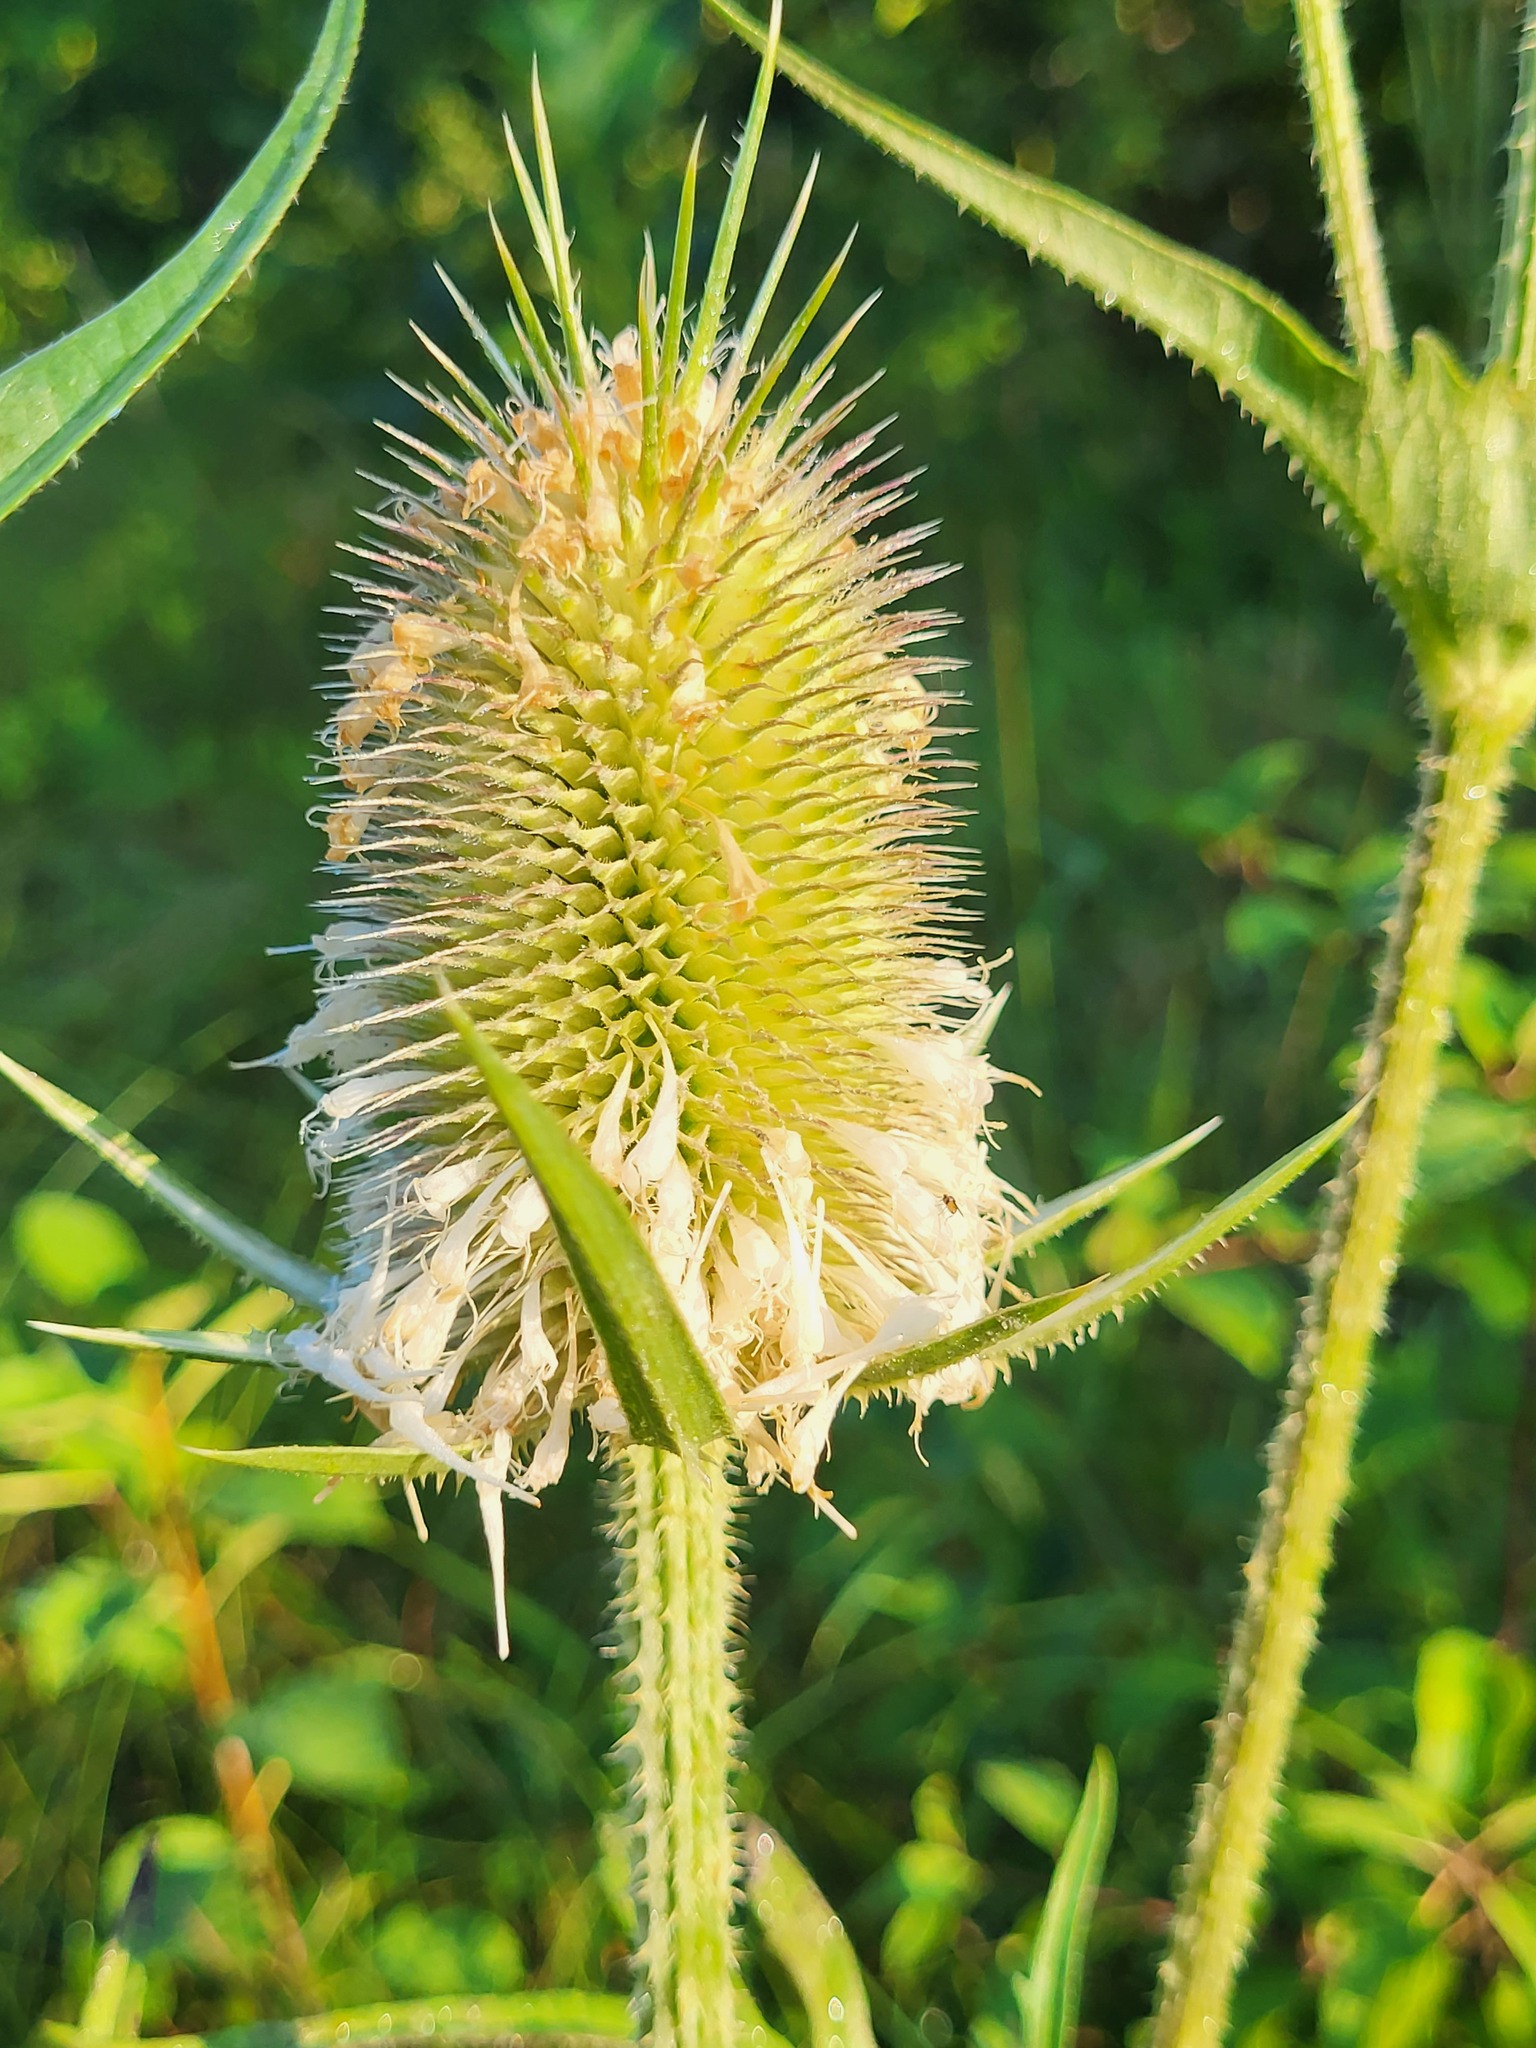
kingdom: Plantae
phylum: Tracheophyta
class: Magnoliopsida
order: Dipsacales
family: Caprifoliaceae
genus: Dipsacus
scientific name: Dipsacus laciniatus
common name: Cut-leaved teasel
